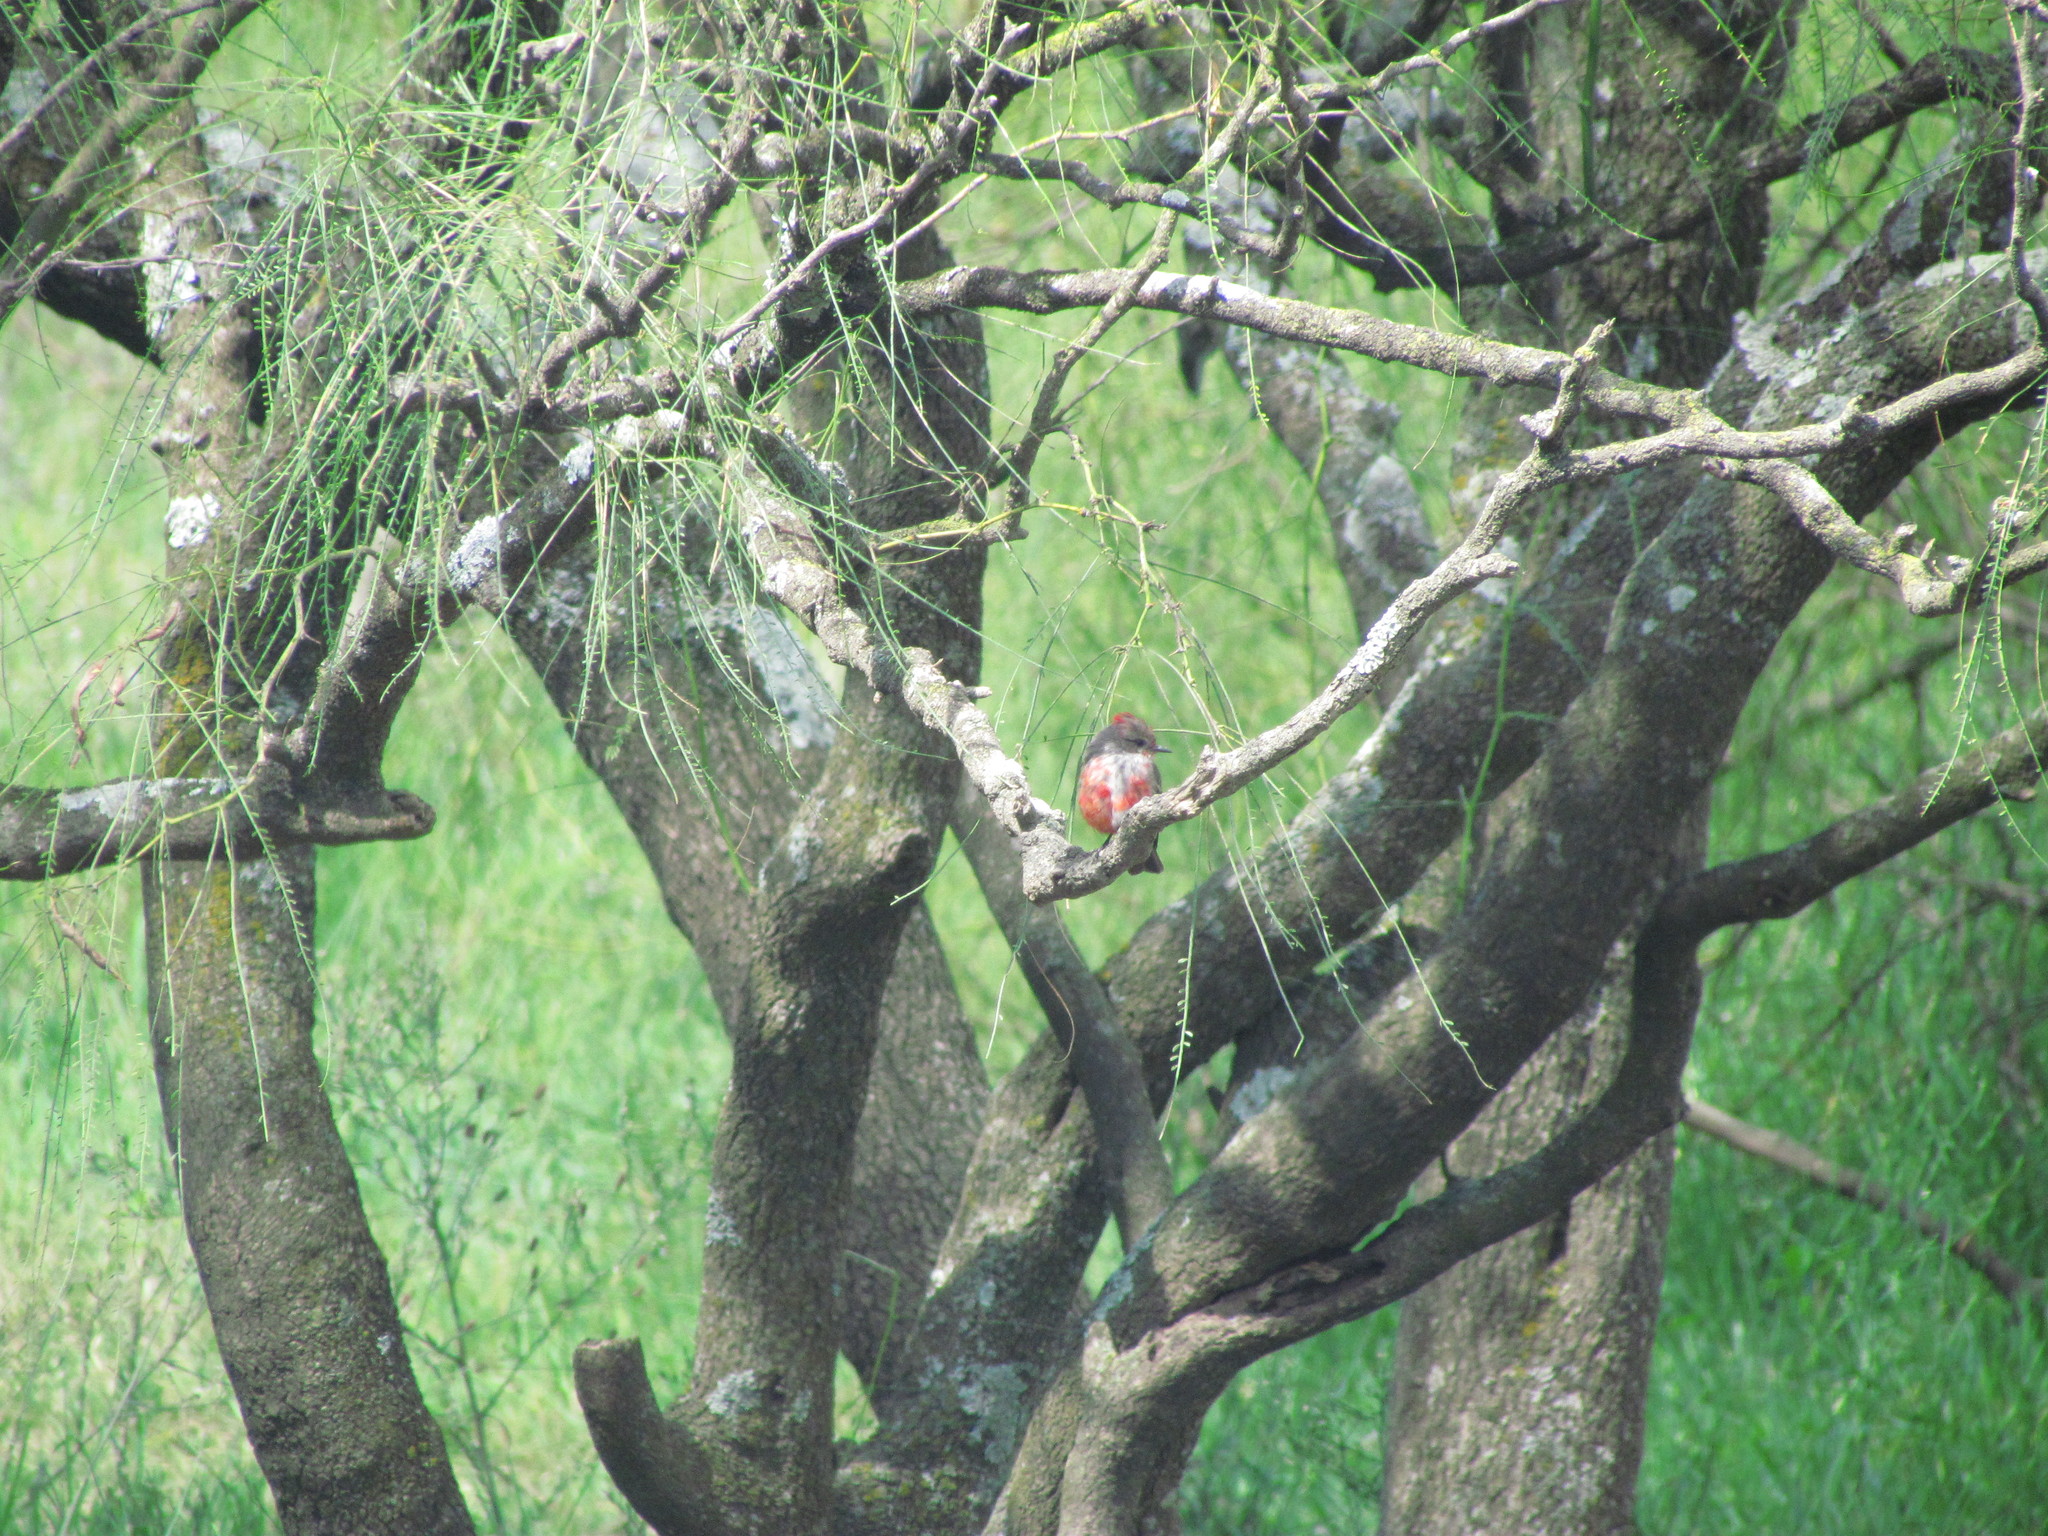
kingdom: Animalia
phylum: Chordata
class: Aves
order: Passeriformes
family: Tyrannidae
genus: Pyrocephalus
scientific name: Pyrocephalus rubinus
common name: Vermilion flycatcher
